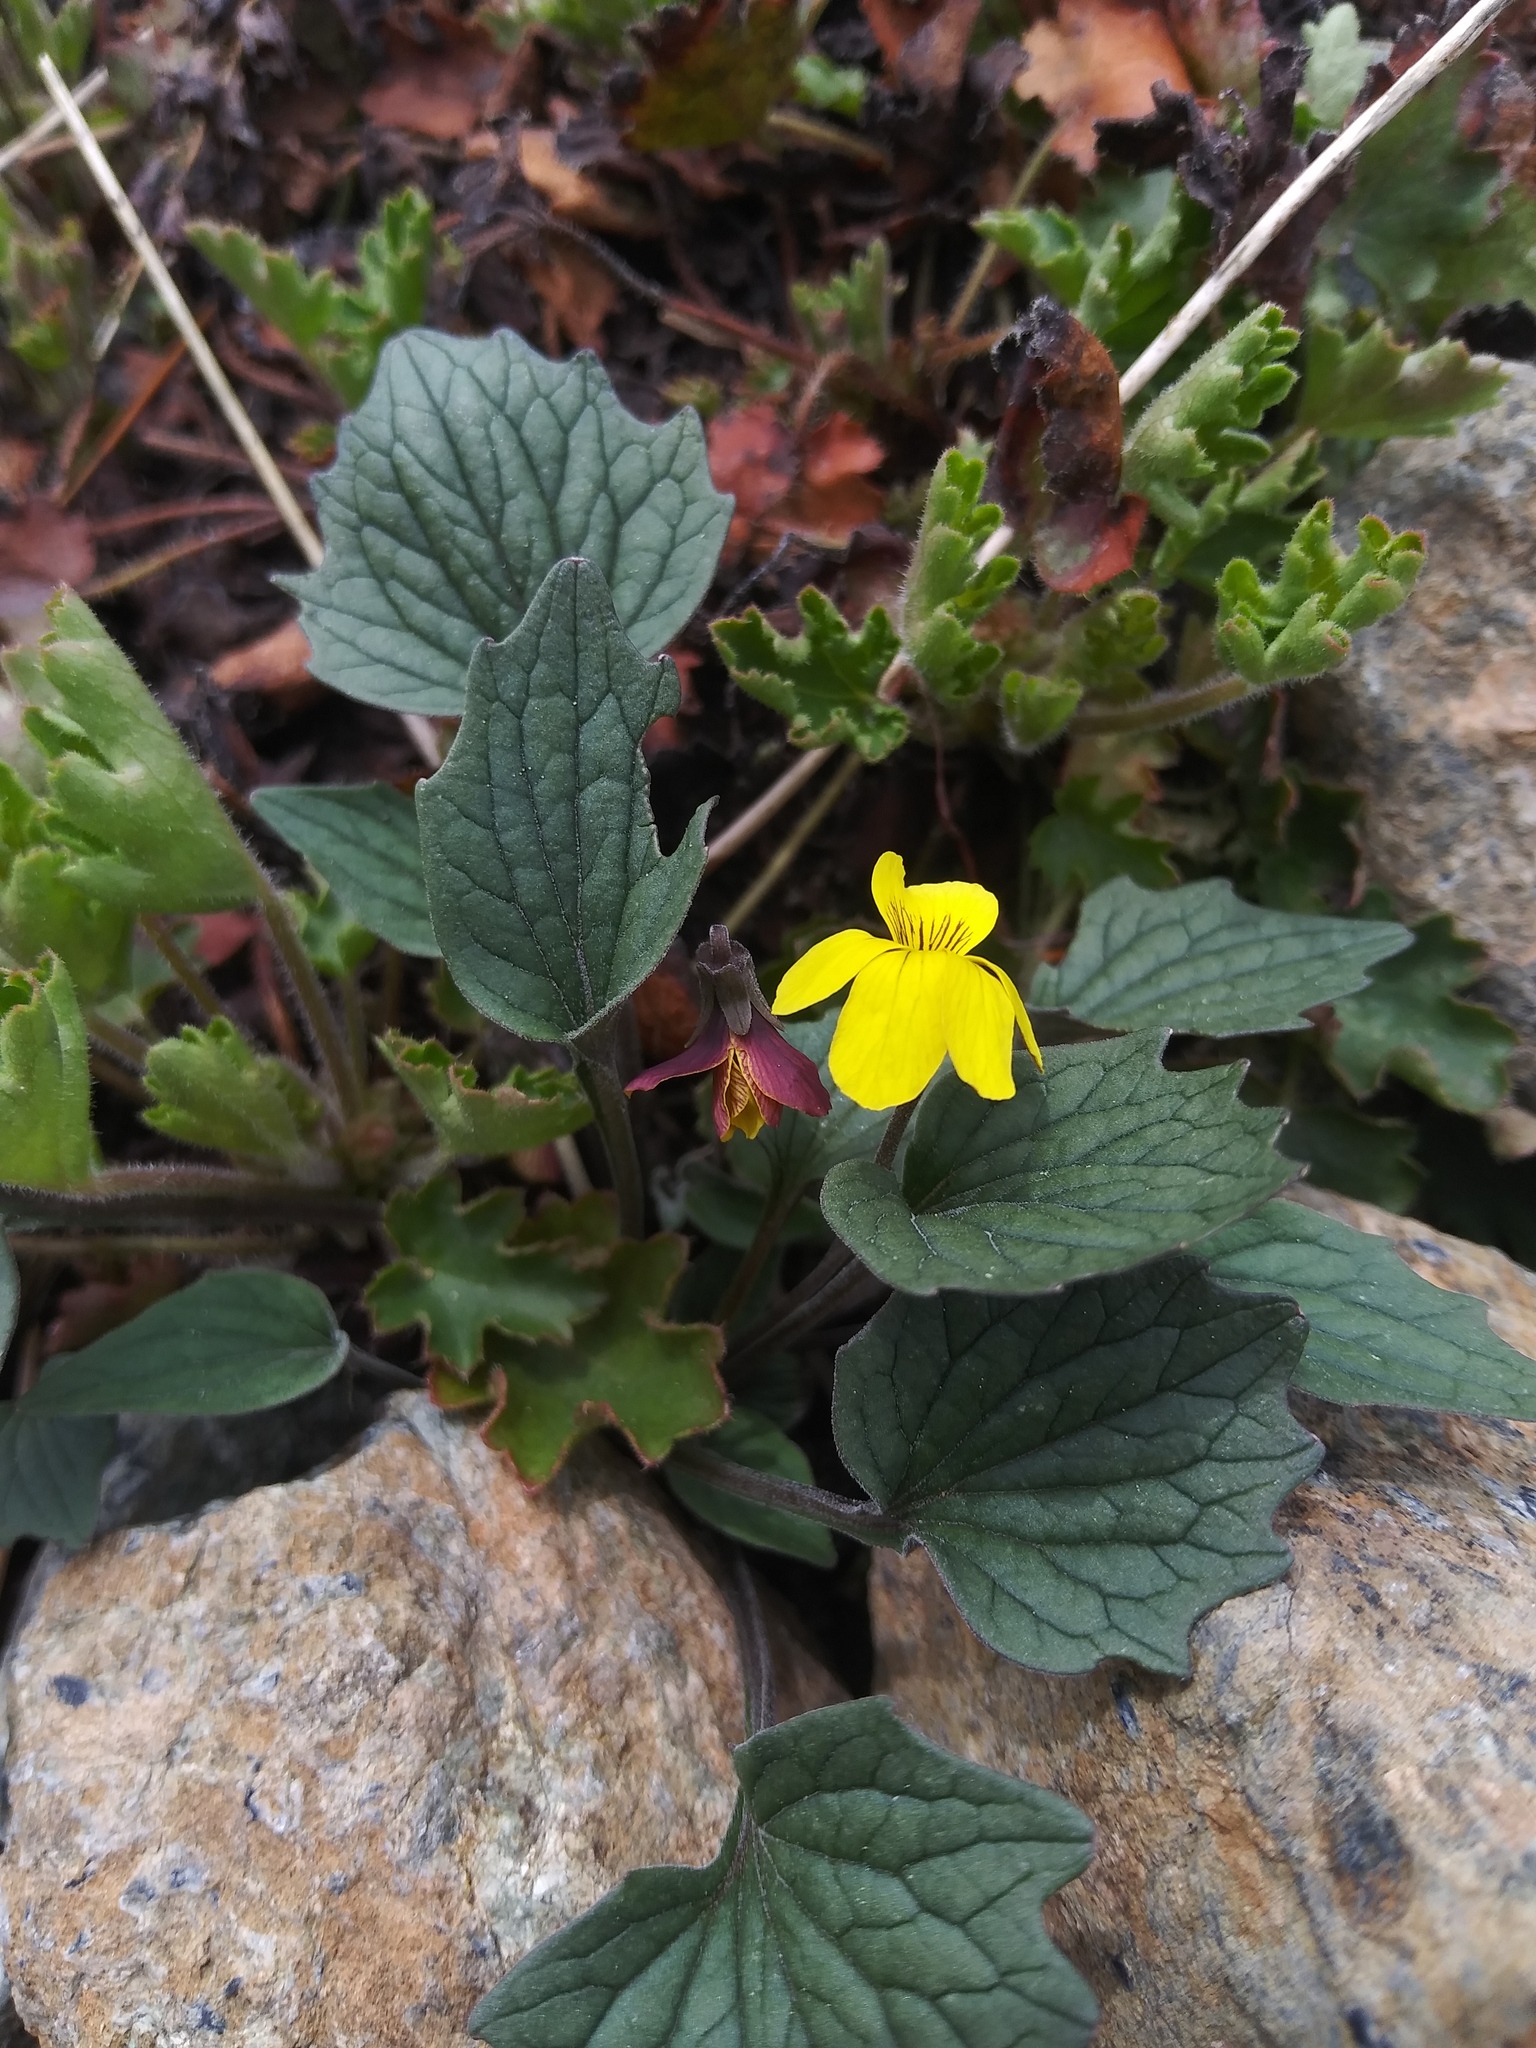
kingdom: Plantae
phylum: Tracheophyta
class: Magnoliopsida
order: Malpighiales
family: Violaceae
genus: Viola
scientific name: Viola purpurea
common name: Pine violet
